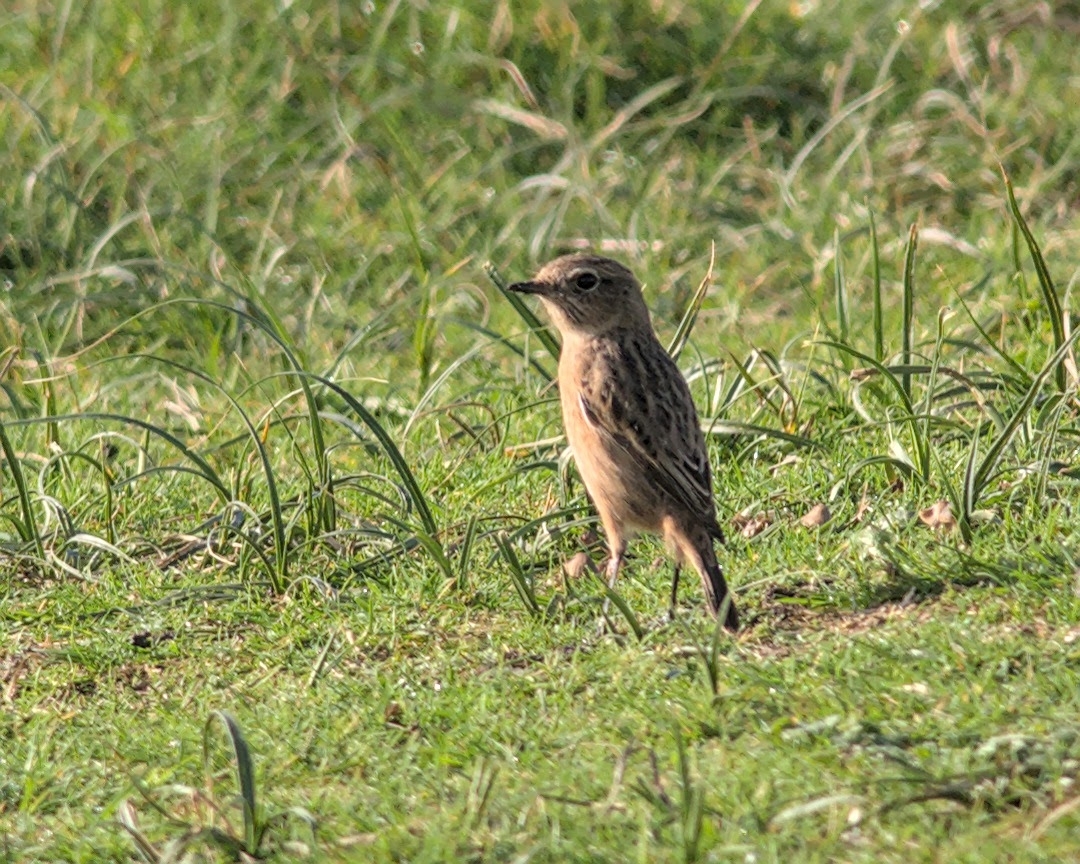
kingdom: Animalia
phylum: Chordata
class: Aves
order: Passeriformes
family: Muscicapidae
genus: Saxicola
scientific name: Saxicola rubicola
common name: European stonechat
